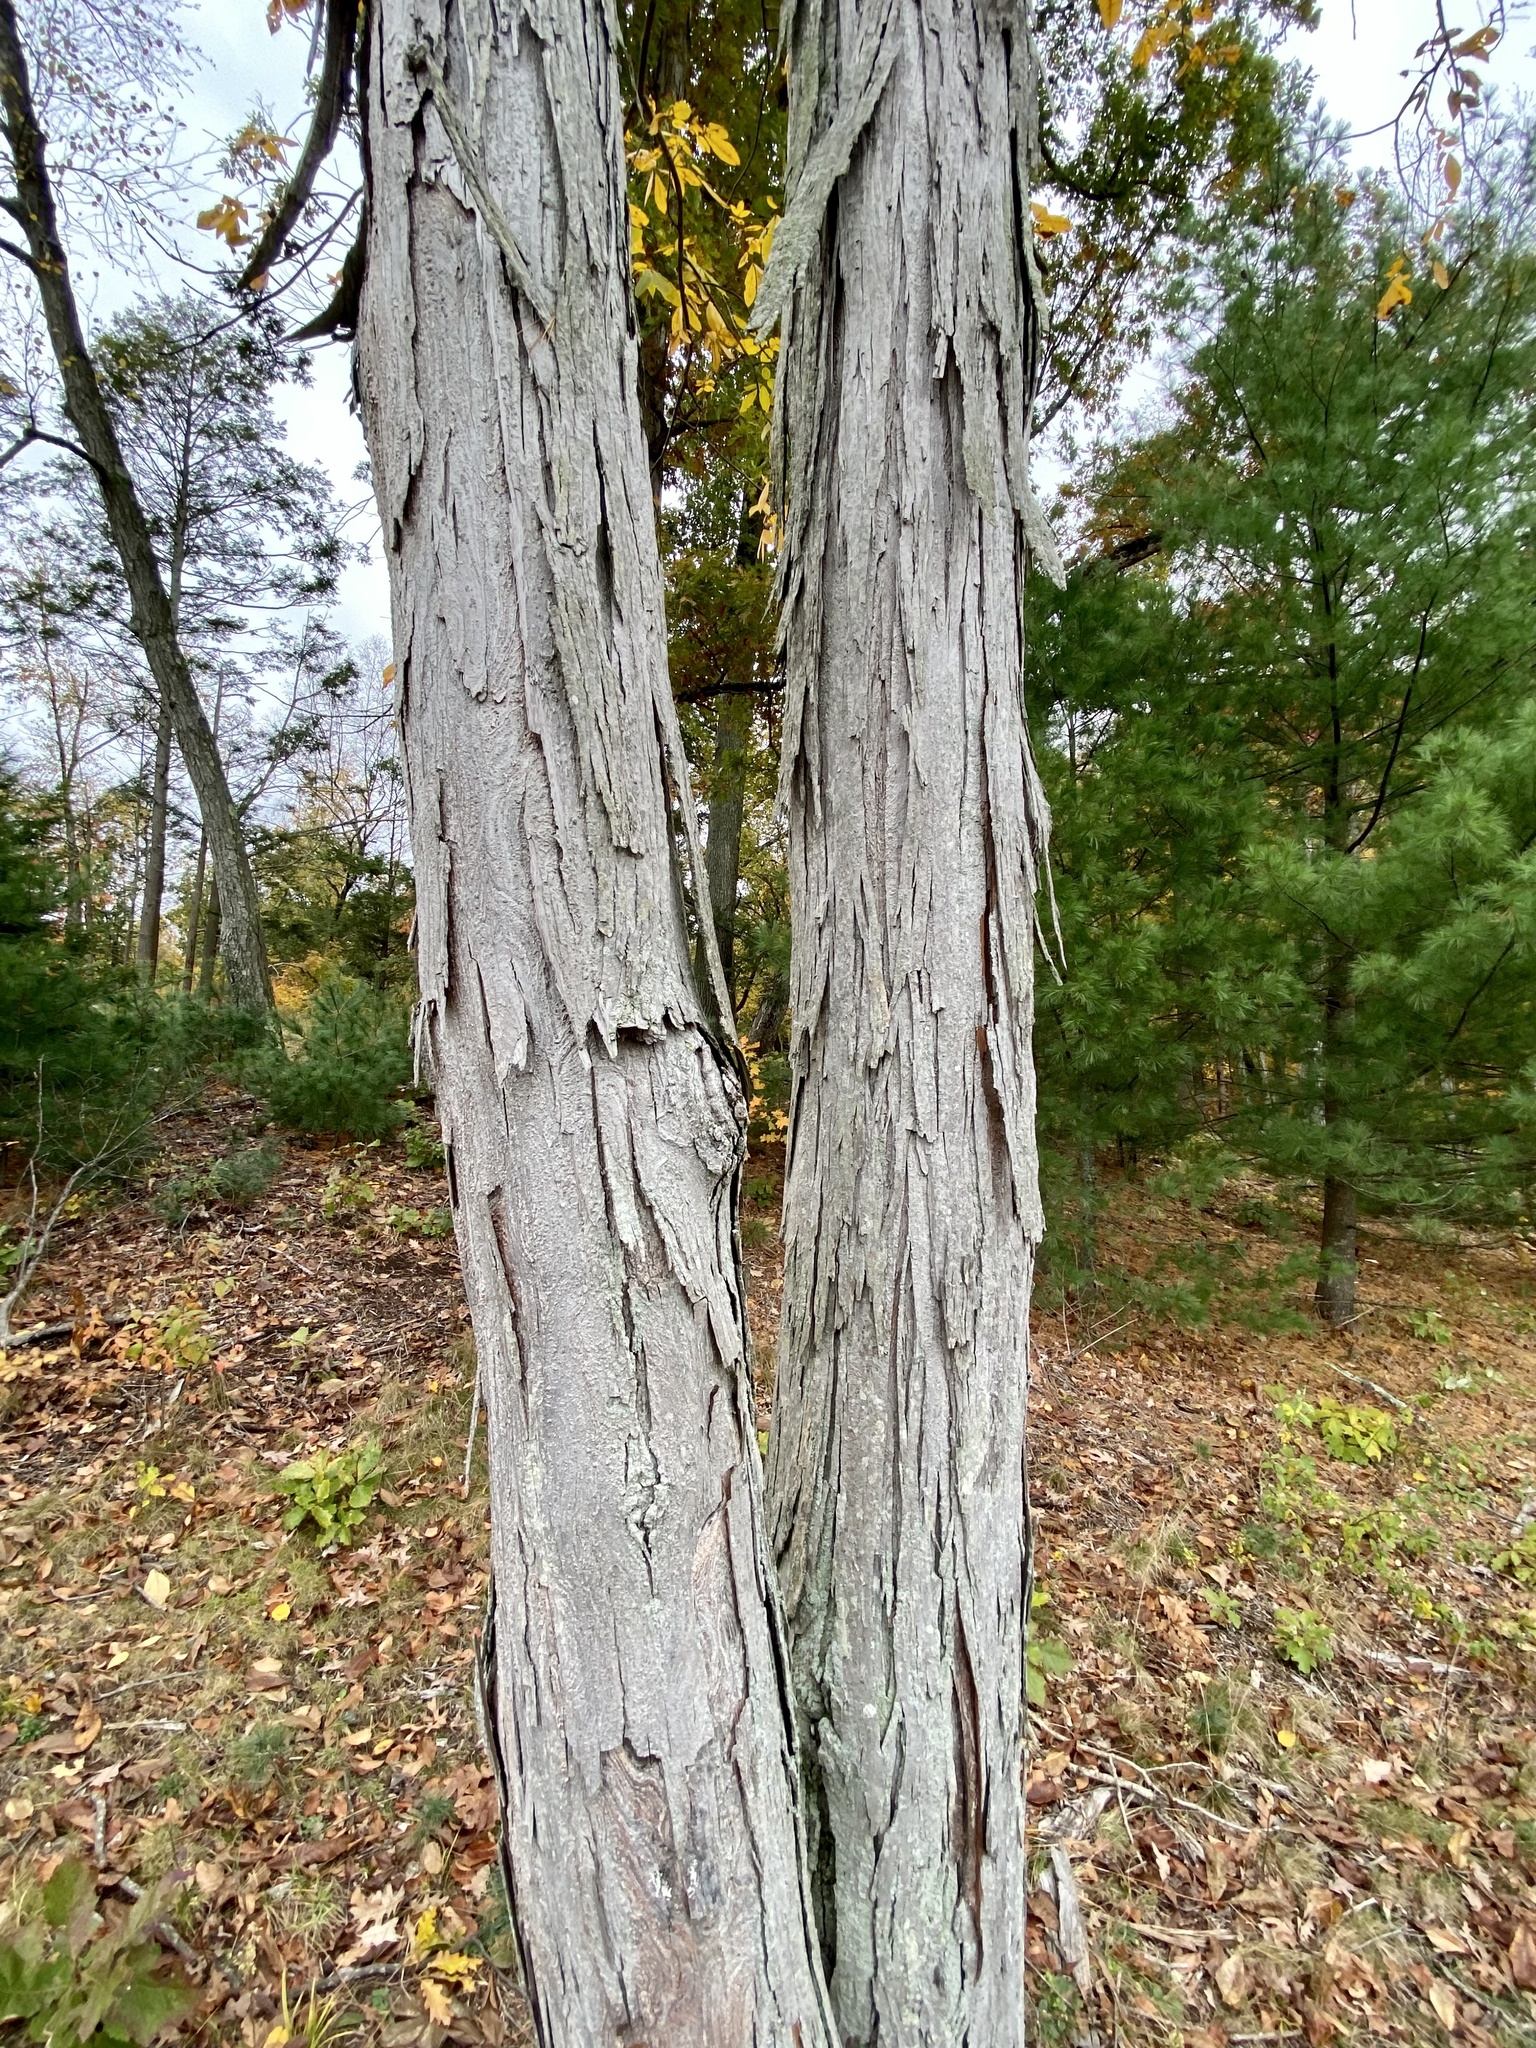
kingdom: Plantae
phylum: Tracheophyta
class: Magnoliopsida
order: Fagales
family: Juglandaceae
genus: Carya
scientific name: Carya ovata
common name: Shagbark hickory
